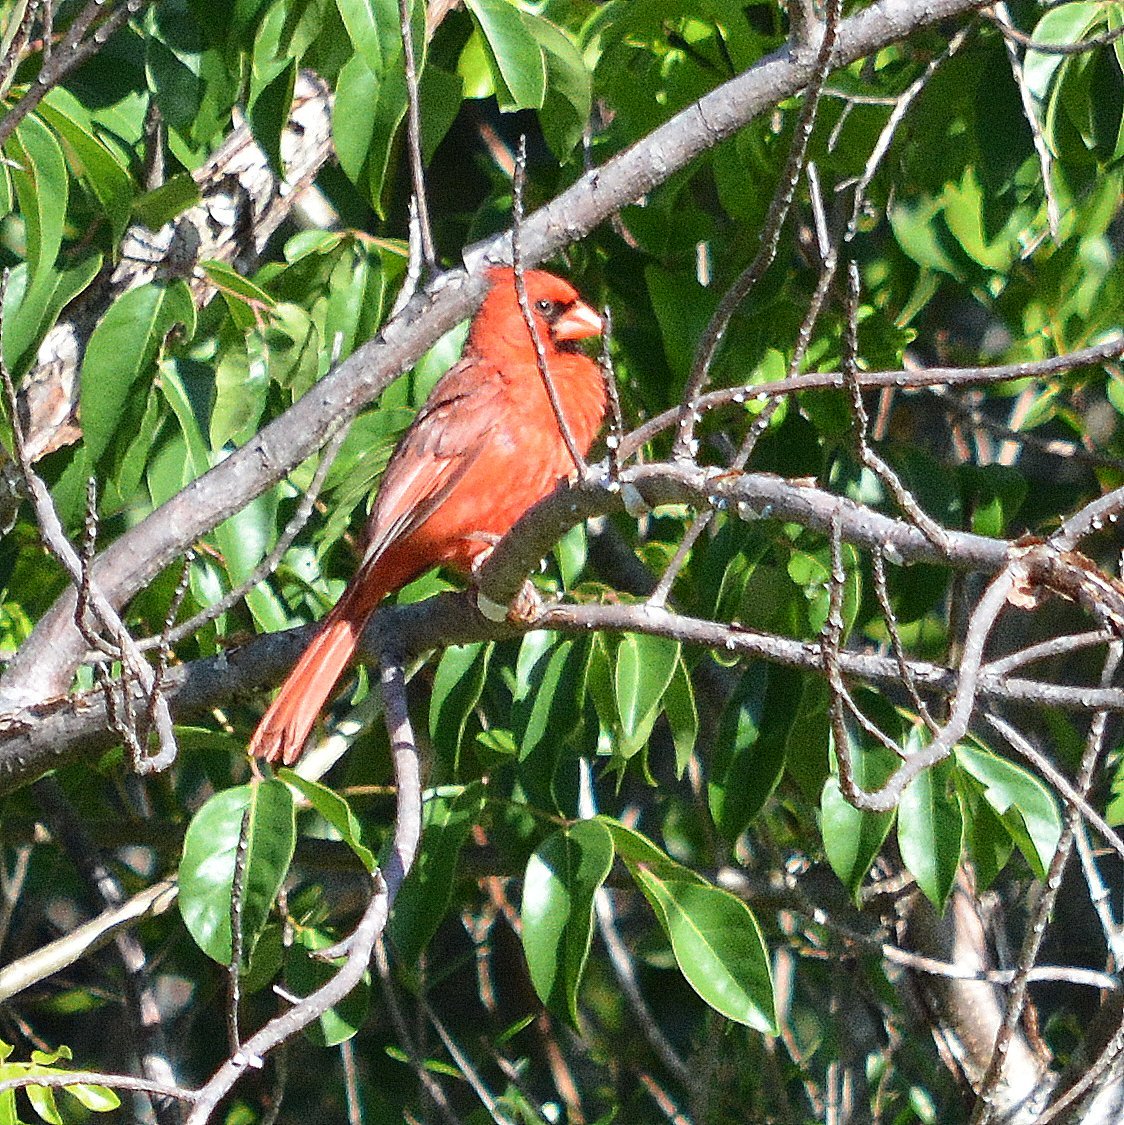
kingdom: Animalia
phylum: Chordata
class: Aves
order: Passeriformes
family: Cardinalidae
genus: Cardinalis
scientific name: Cardinalis cardinalis
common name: Northern cardinal
